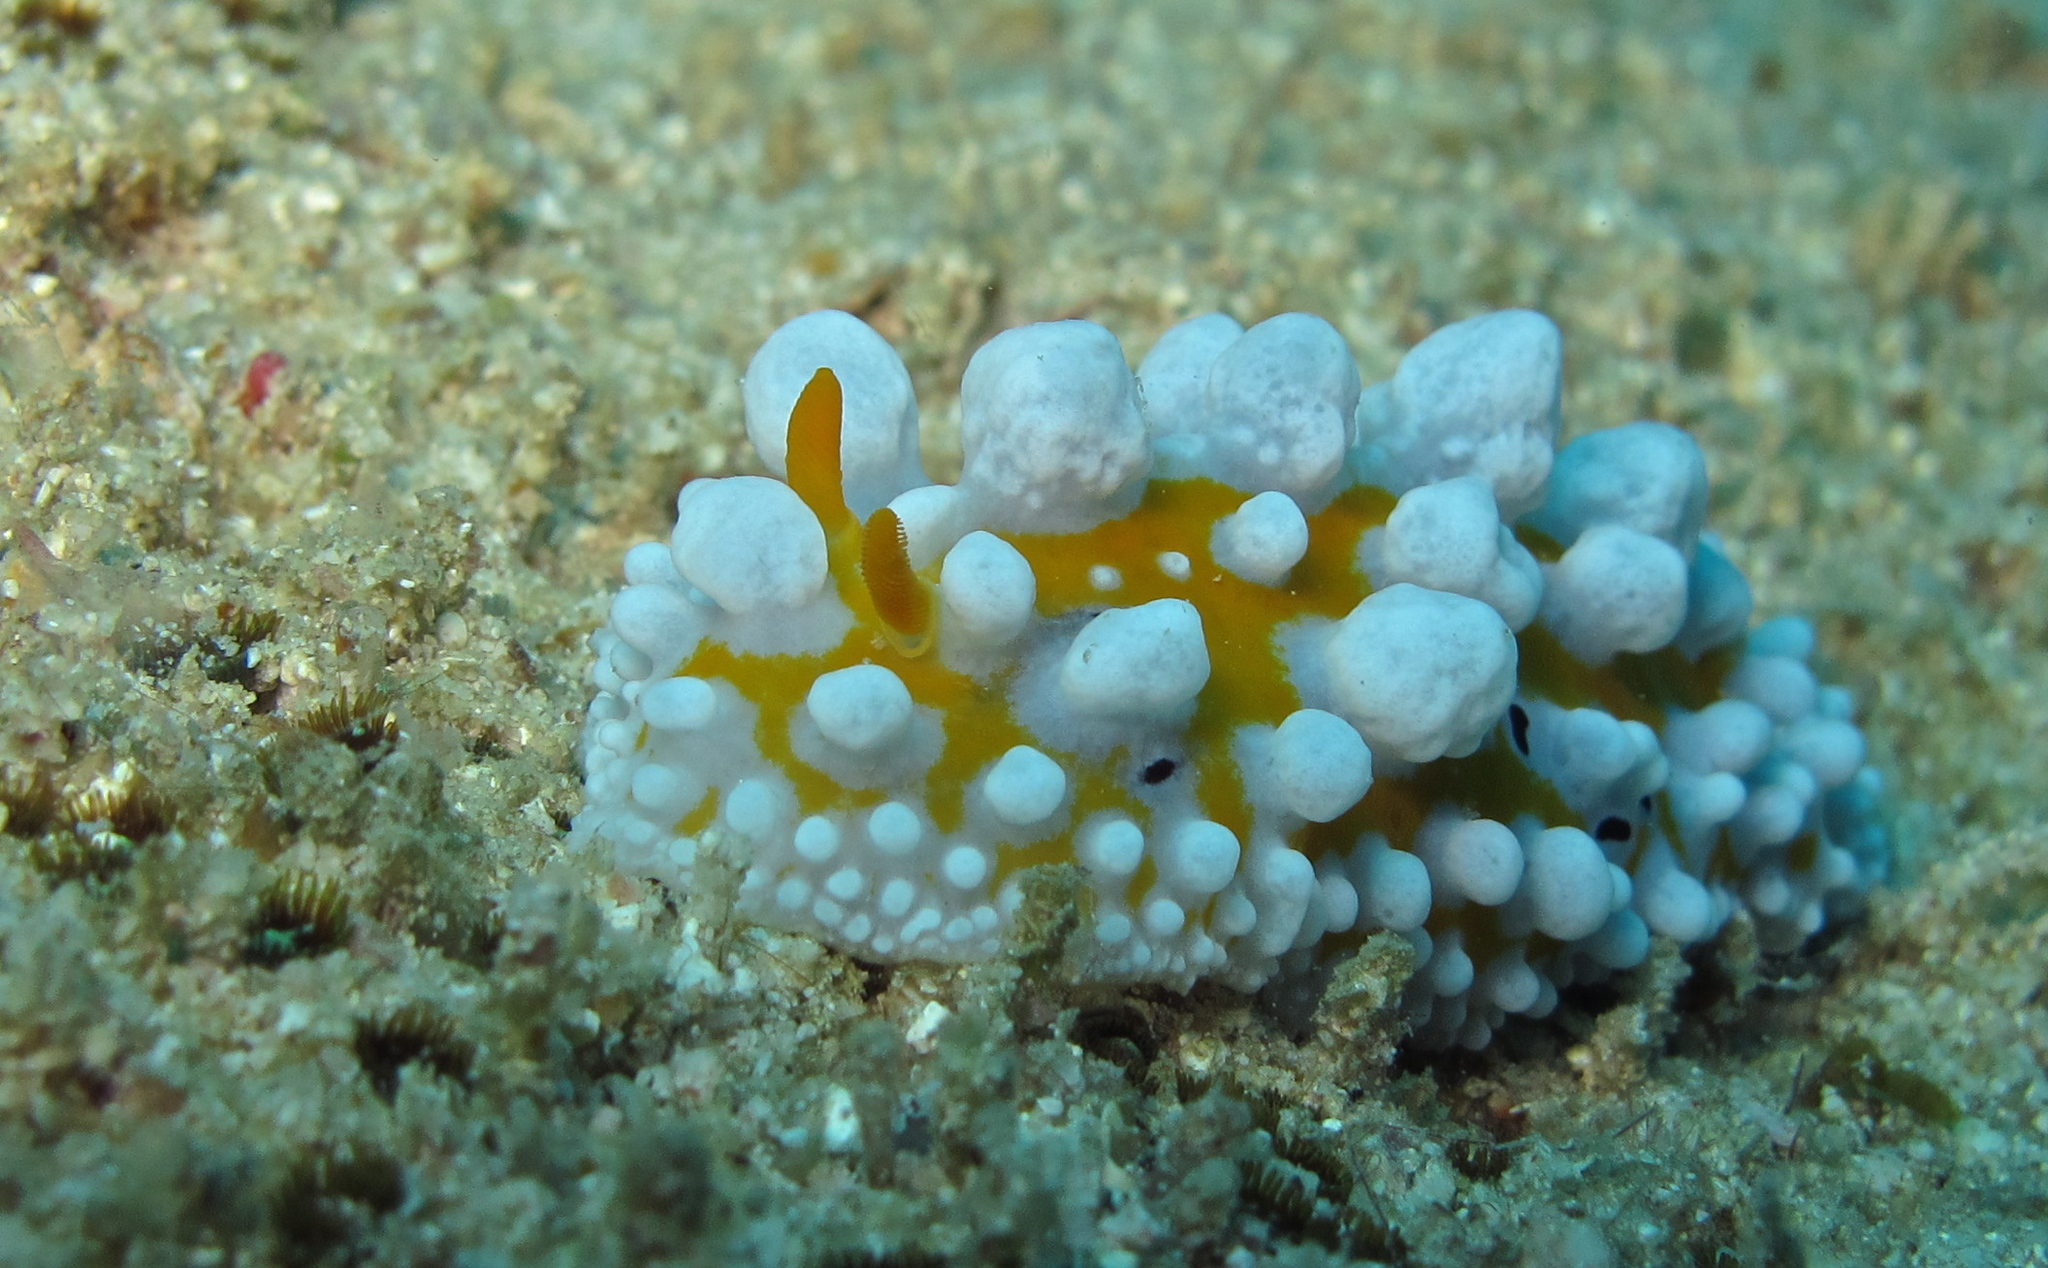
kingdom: Animalia
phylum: Mollusca
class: Gastropoda
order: Nudibranchia
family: Phyllidiidae
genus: Phyllidia
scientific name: Phyllidia ocellata
